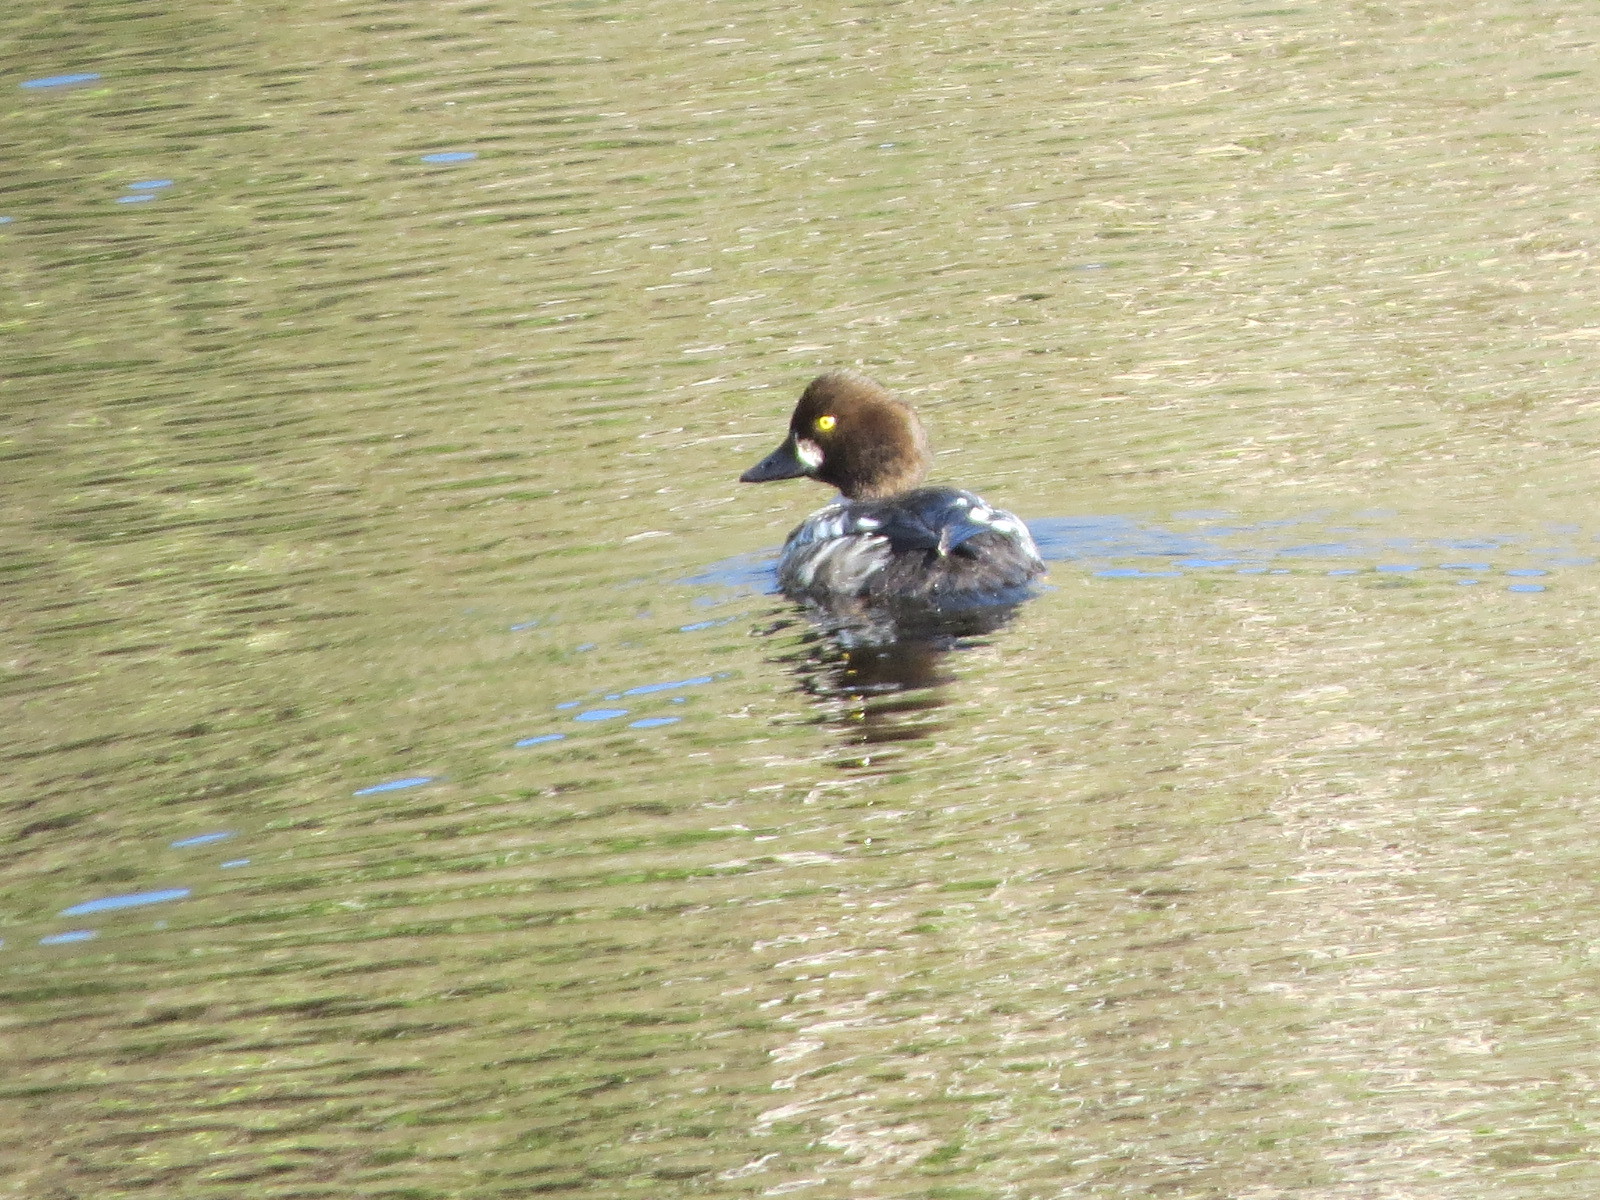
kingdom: Animalia
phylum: Chordata
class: Aves
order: Anseriformes
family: Anatidae
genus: Bucephala
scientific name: Bucephala clangula
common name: Common goldeneye
